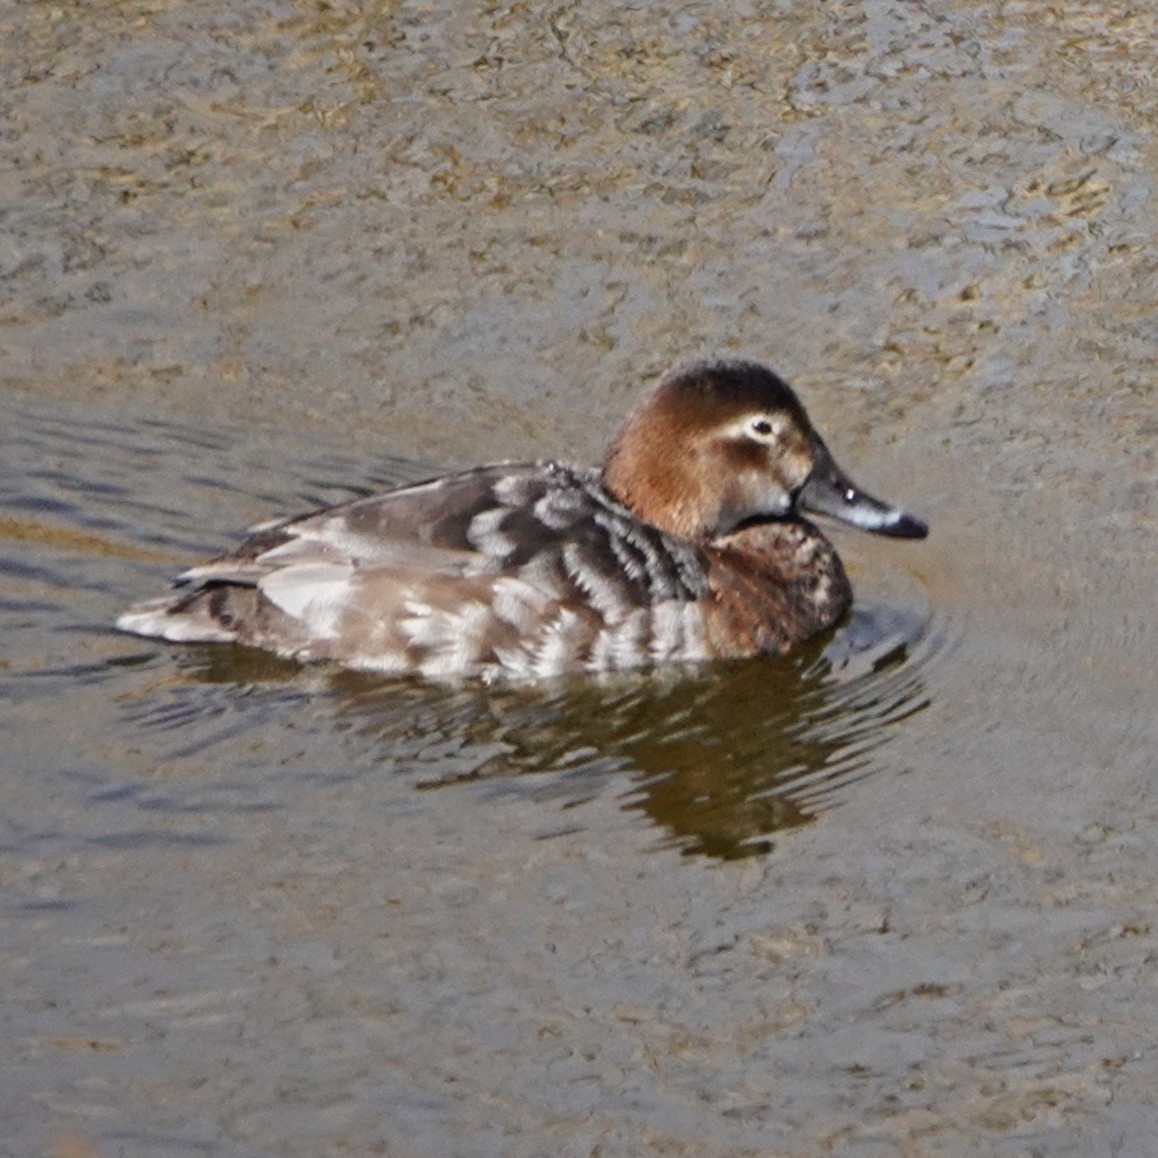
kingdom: Animalia
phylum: Chordata
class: Aves
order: Anseriformes
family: Anatidae
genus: Aythya
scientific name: Aythya ferina
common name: Common pochard
